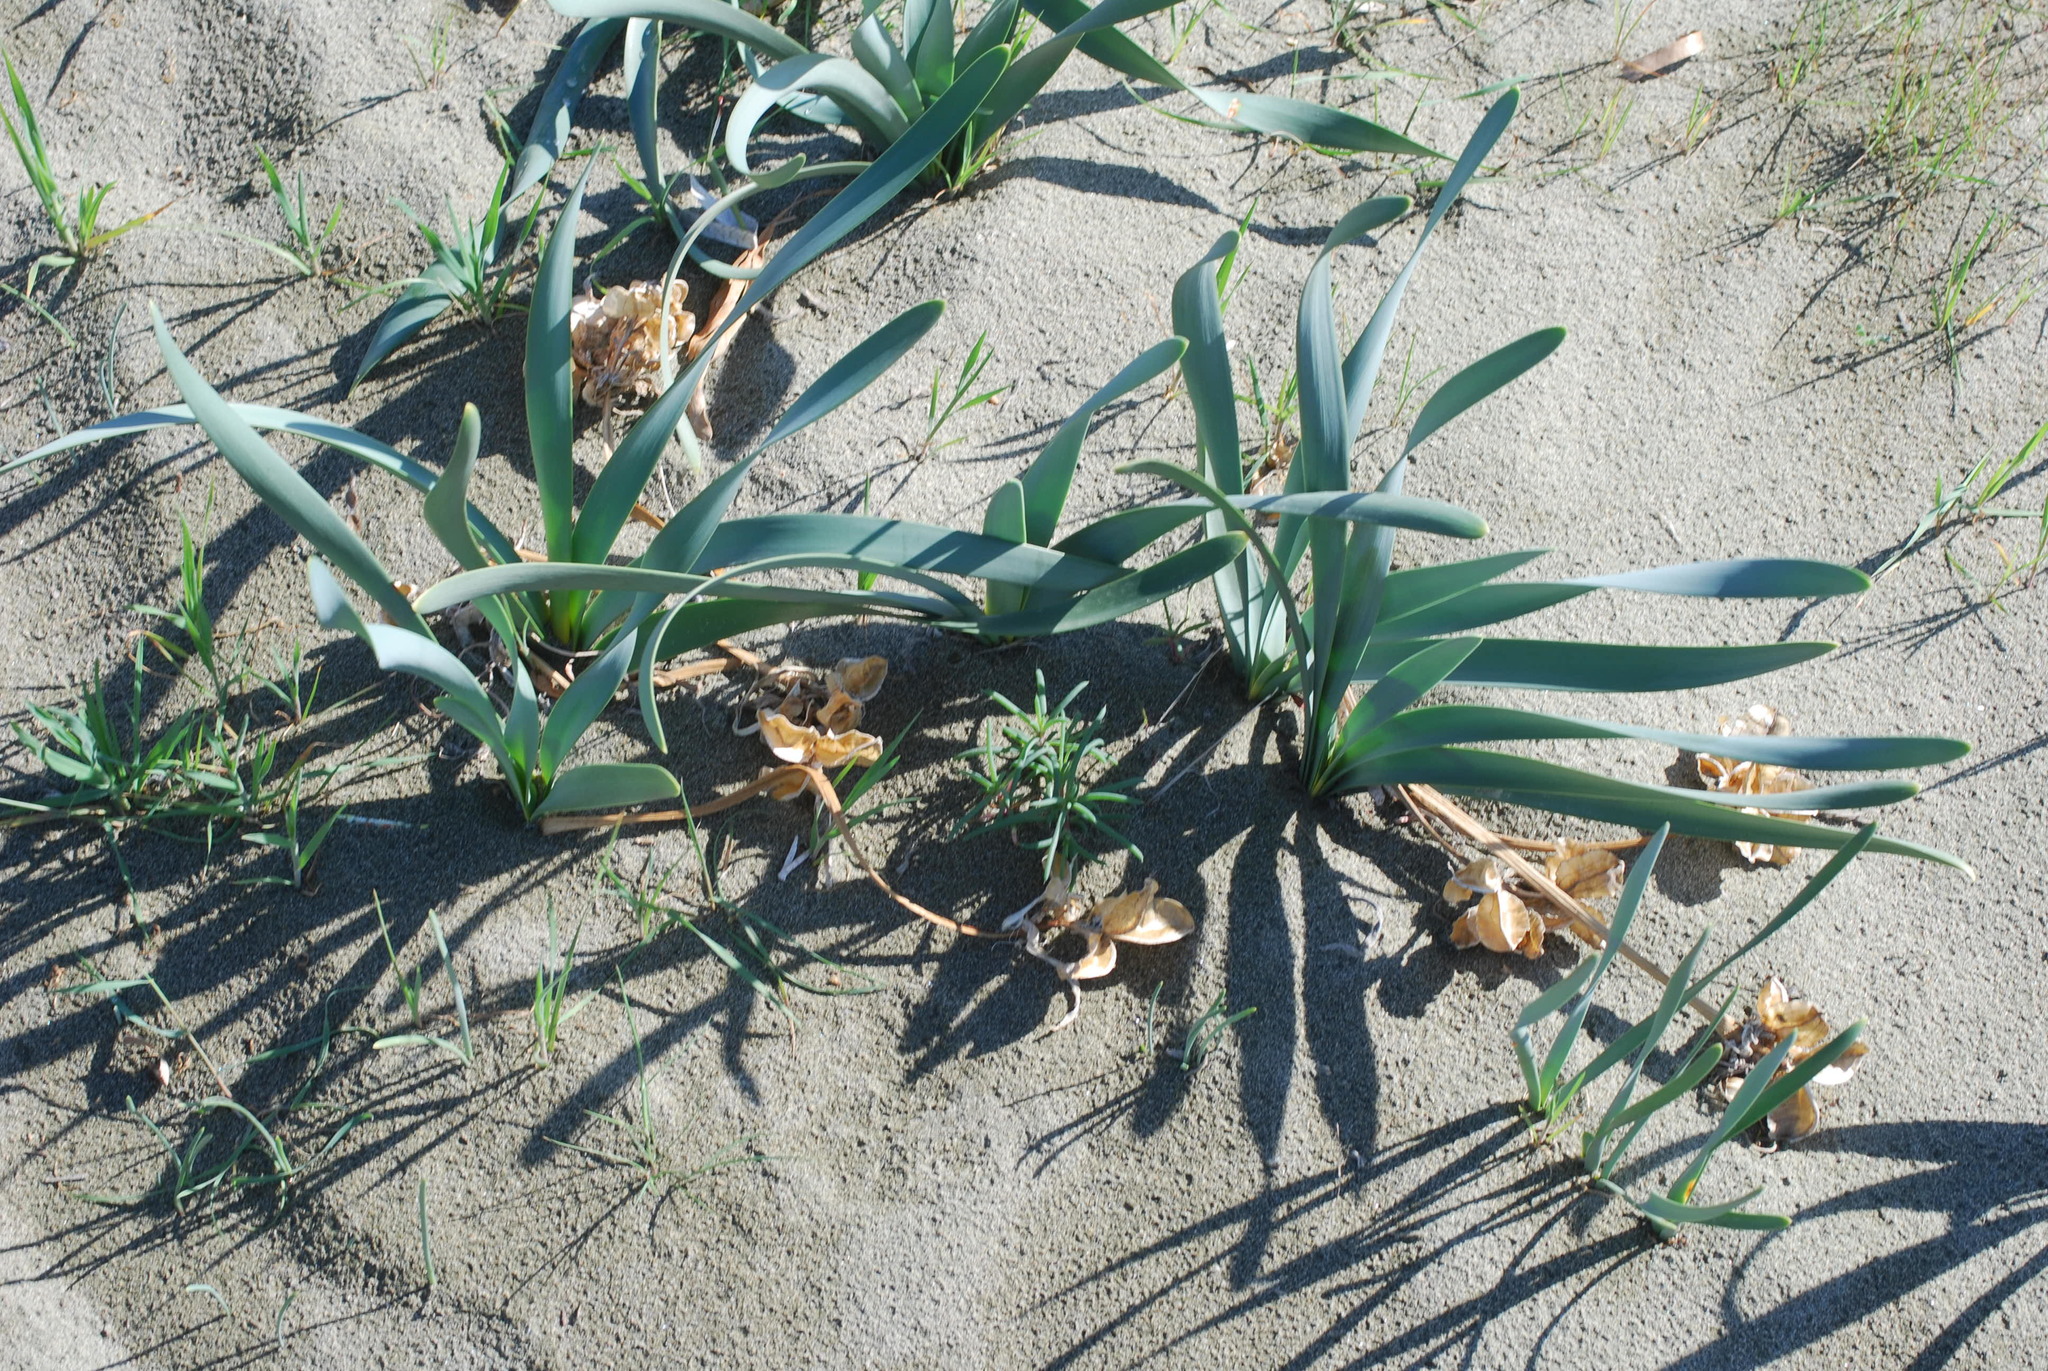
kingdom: Plantae
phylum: Tracheophyta
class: Liliopsida
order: Asparagales
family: Amaryllidaceae
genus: Pancratium
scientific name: Pancratium maritimum
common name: Sea-daffodil
